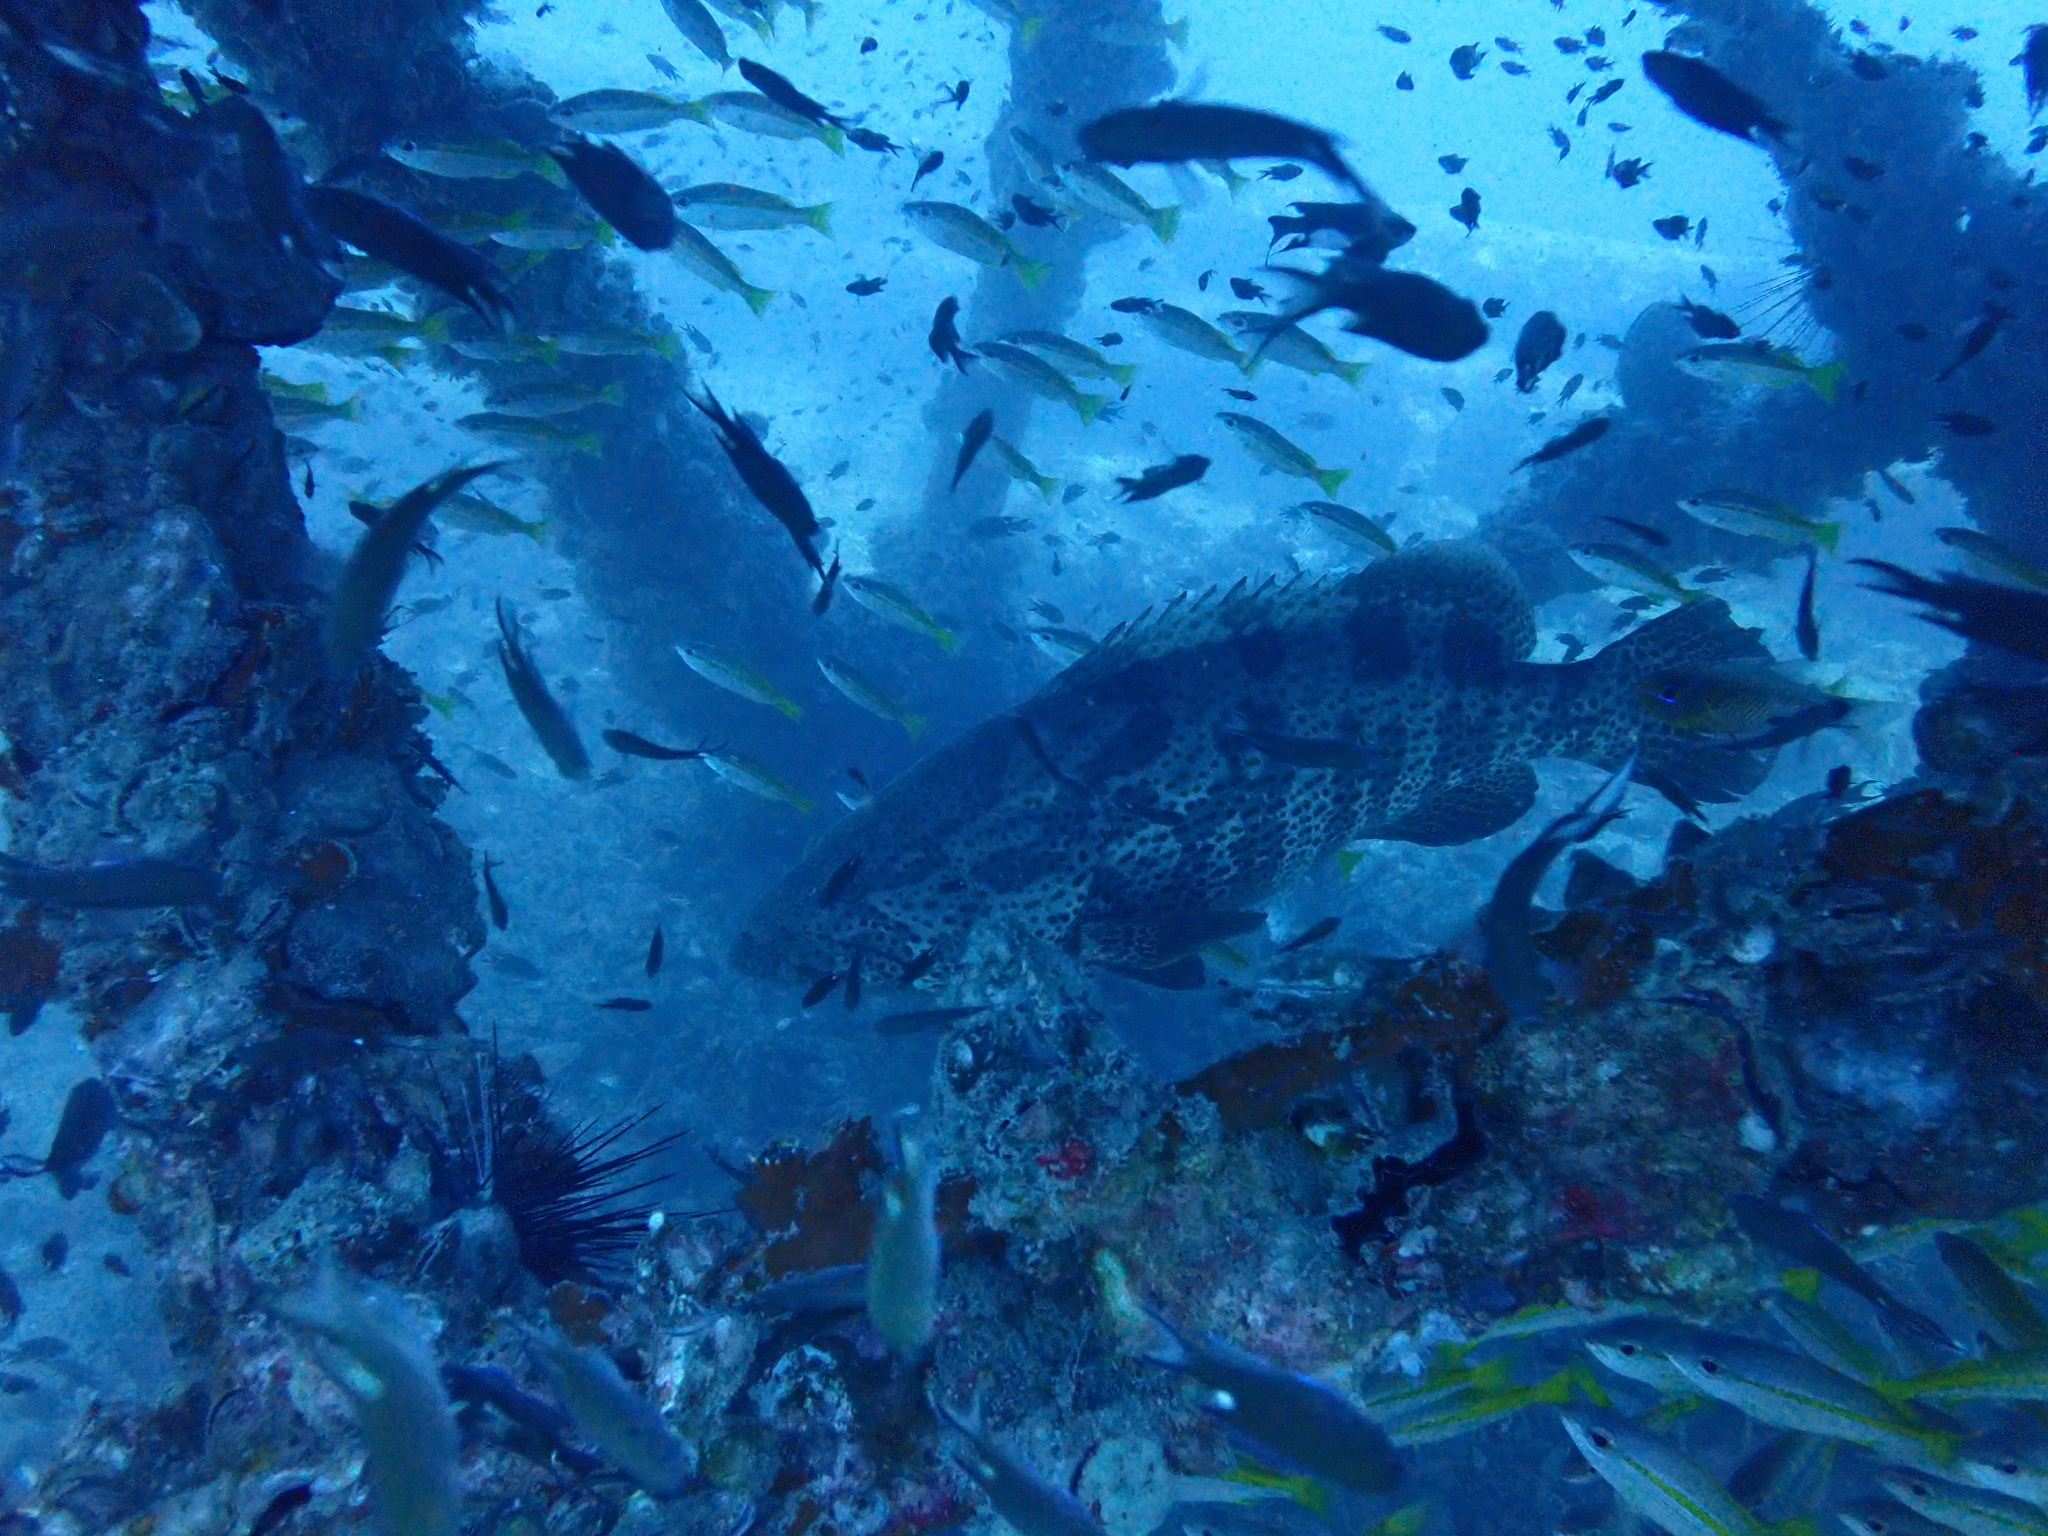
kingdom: Animalia
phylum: Chordata
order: Perciformes
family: Serranidae
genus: Epinephelus
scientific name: Epinephelus coioides
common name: Orange-spotted grouper
